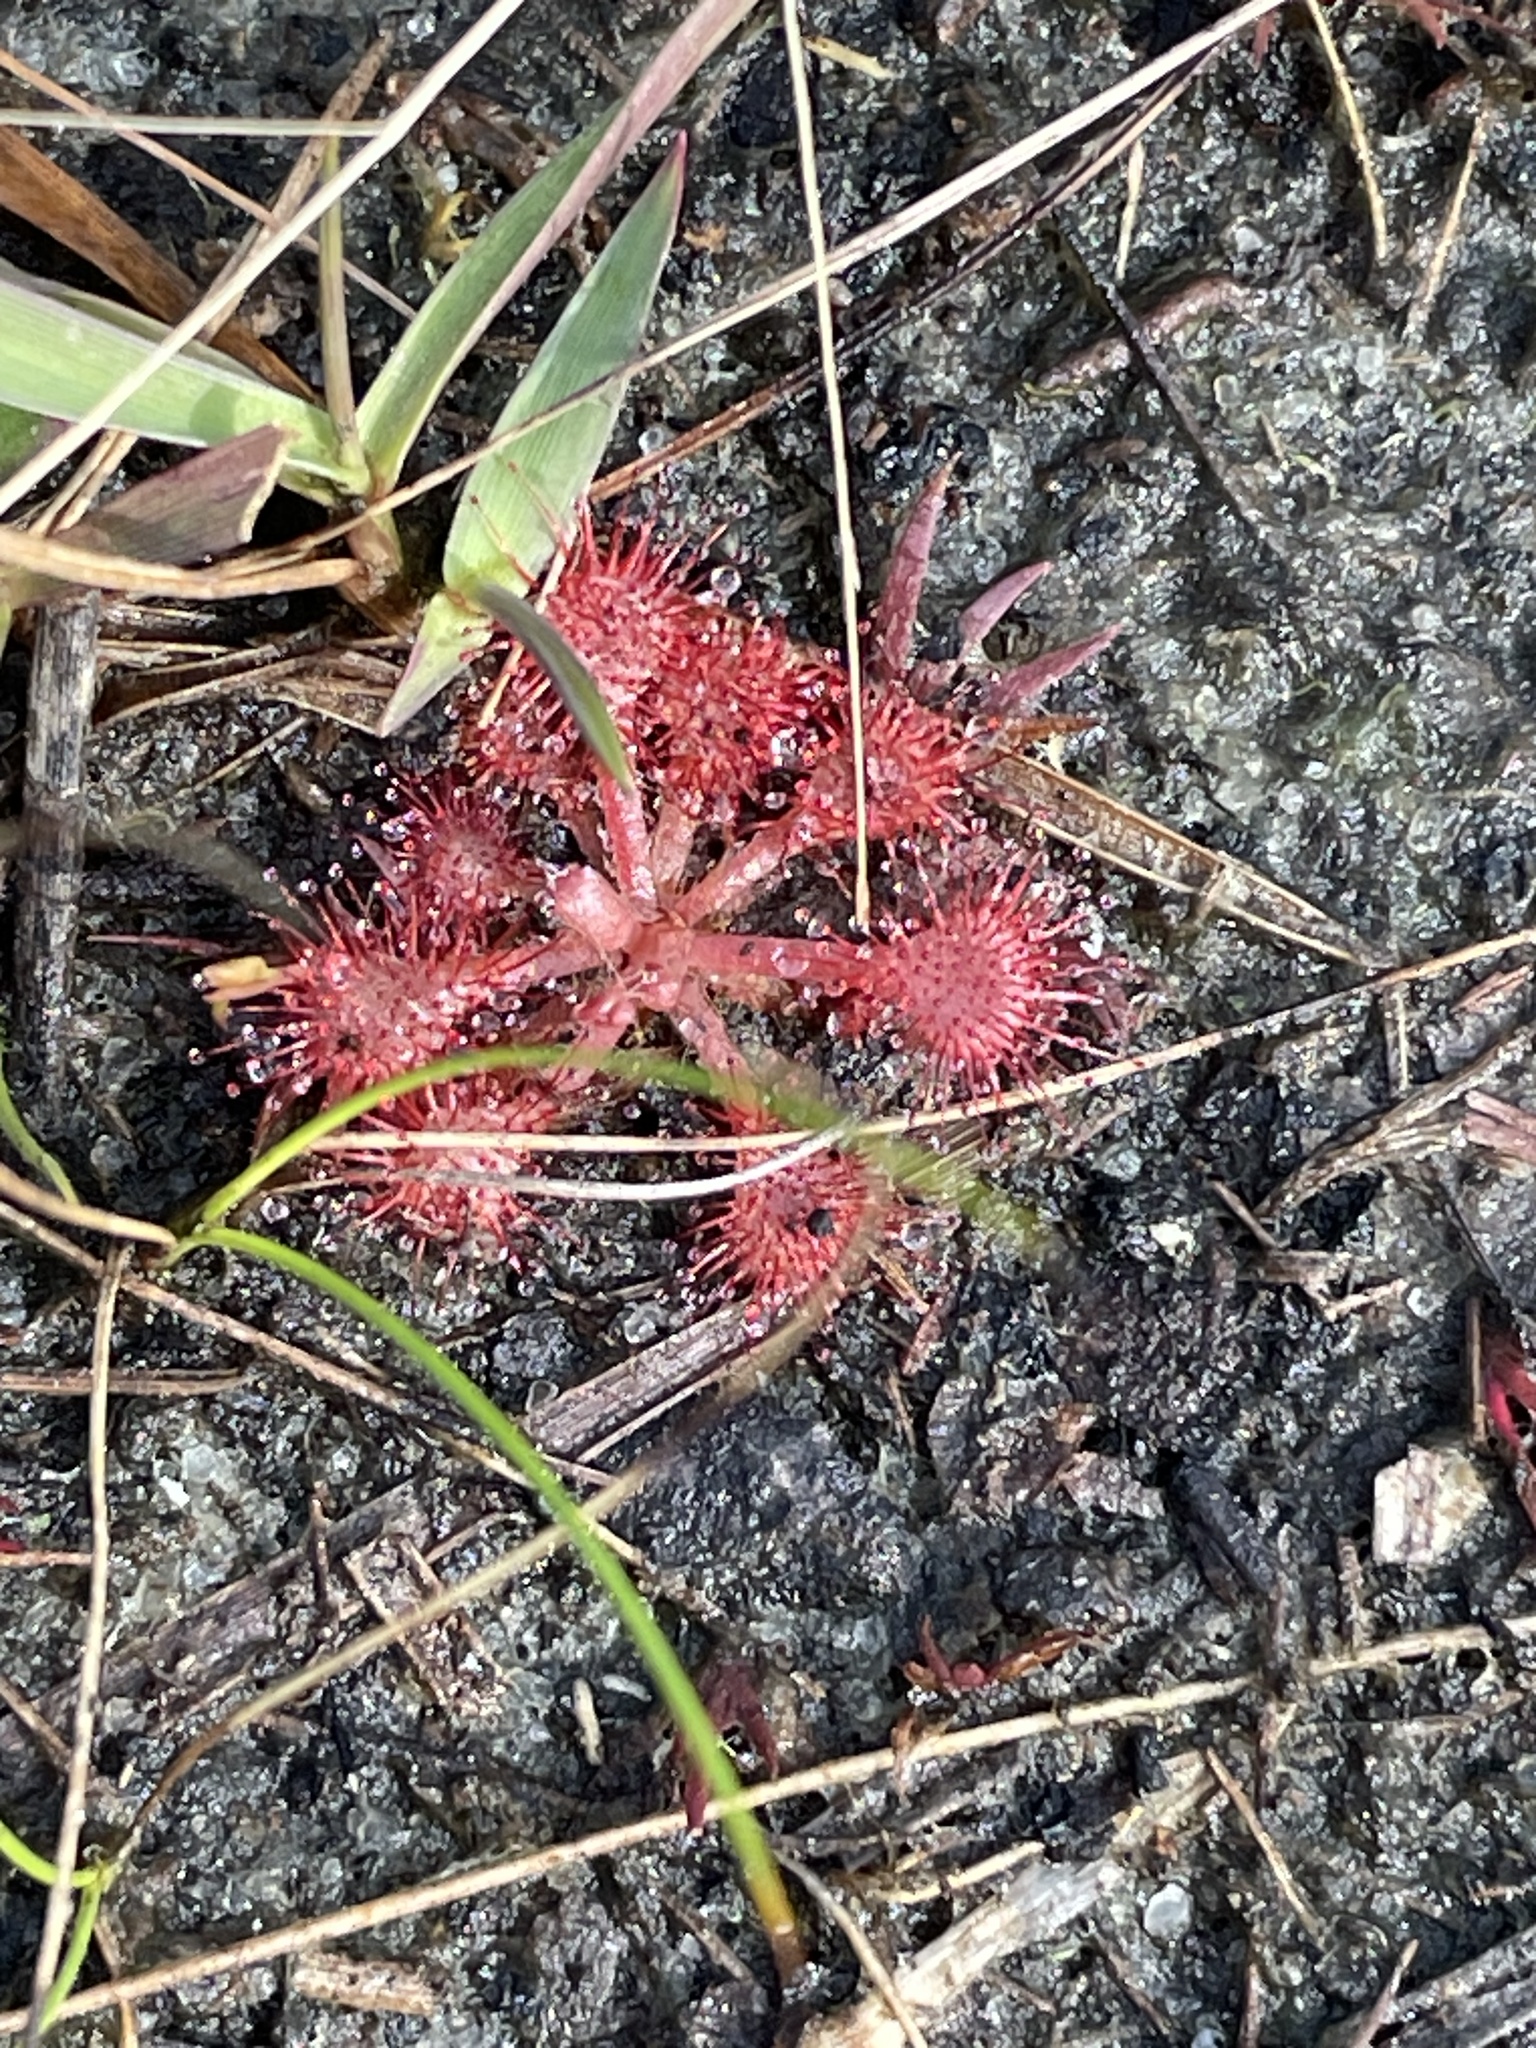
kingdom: Plantae
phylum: Tracheophyta
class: Magnoliopsida
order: Caryophyllales
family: Droseraceae
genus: Drosera
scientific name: Drosera capillaris
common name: Pink sundew
